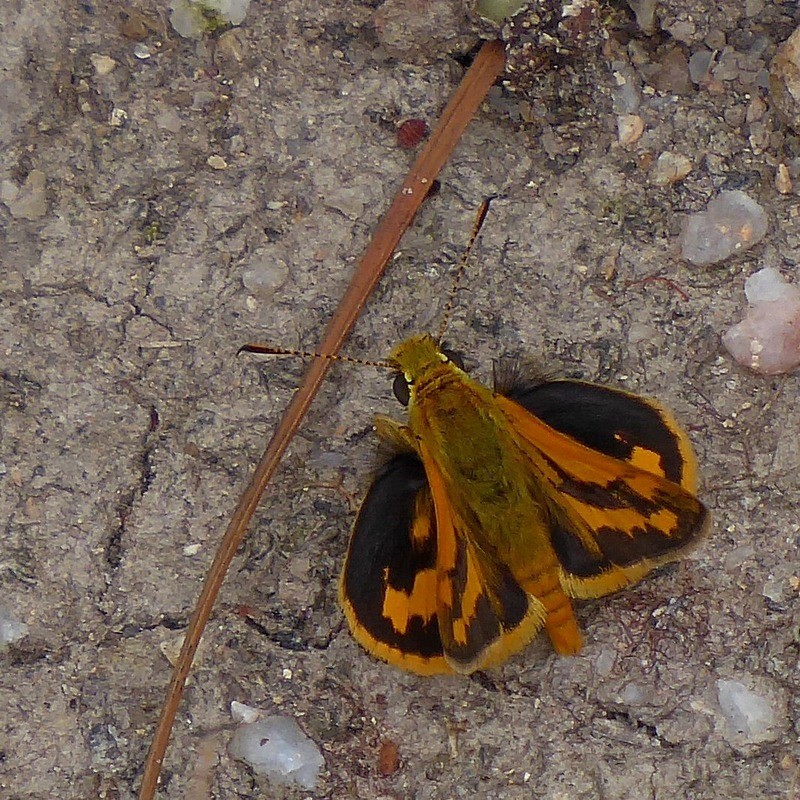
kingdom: Animalia
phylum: Arthropoda
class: Insecta
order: Lepidoptera
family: Hesperiidae
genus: Ocybadistes
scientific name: Ocybadistes walkeri
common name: Yellow-banded dart
